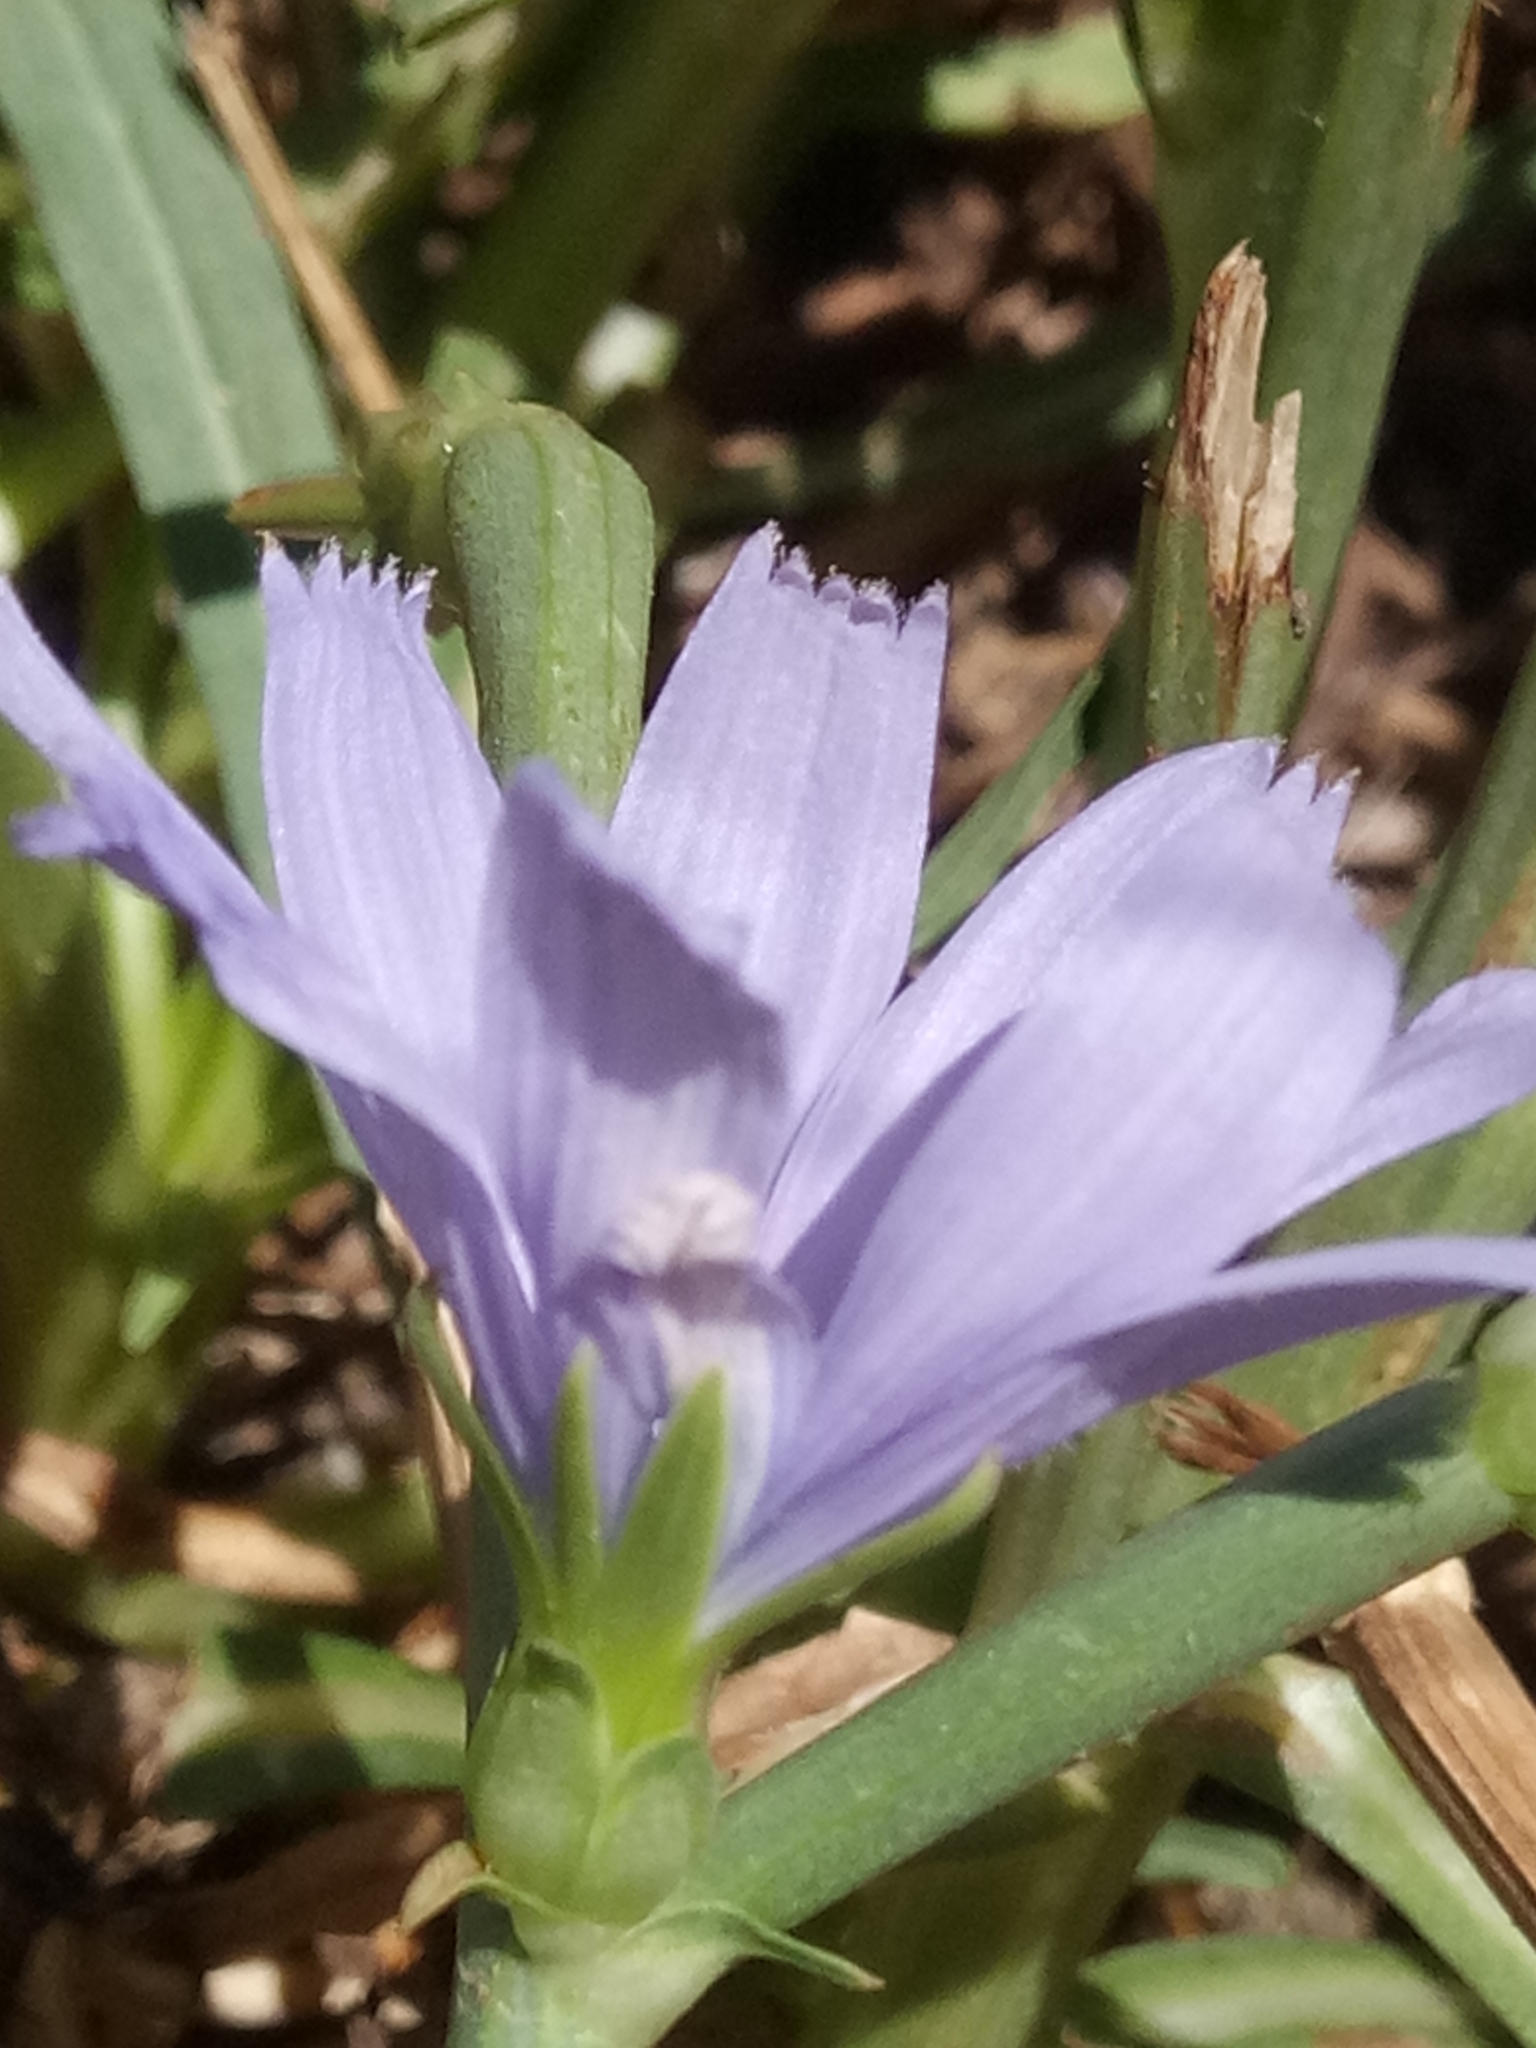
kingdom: Plantae
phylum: Tracheophyta
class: Magnoliopsida
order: Asterales
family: Asteraceae
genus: Cichorium
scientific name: Cichorium intybus
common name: Chicory
